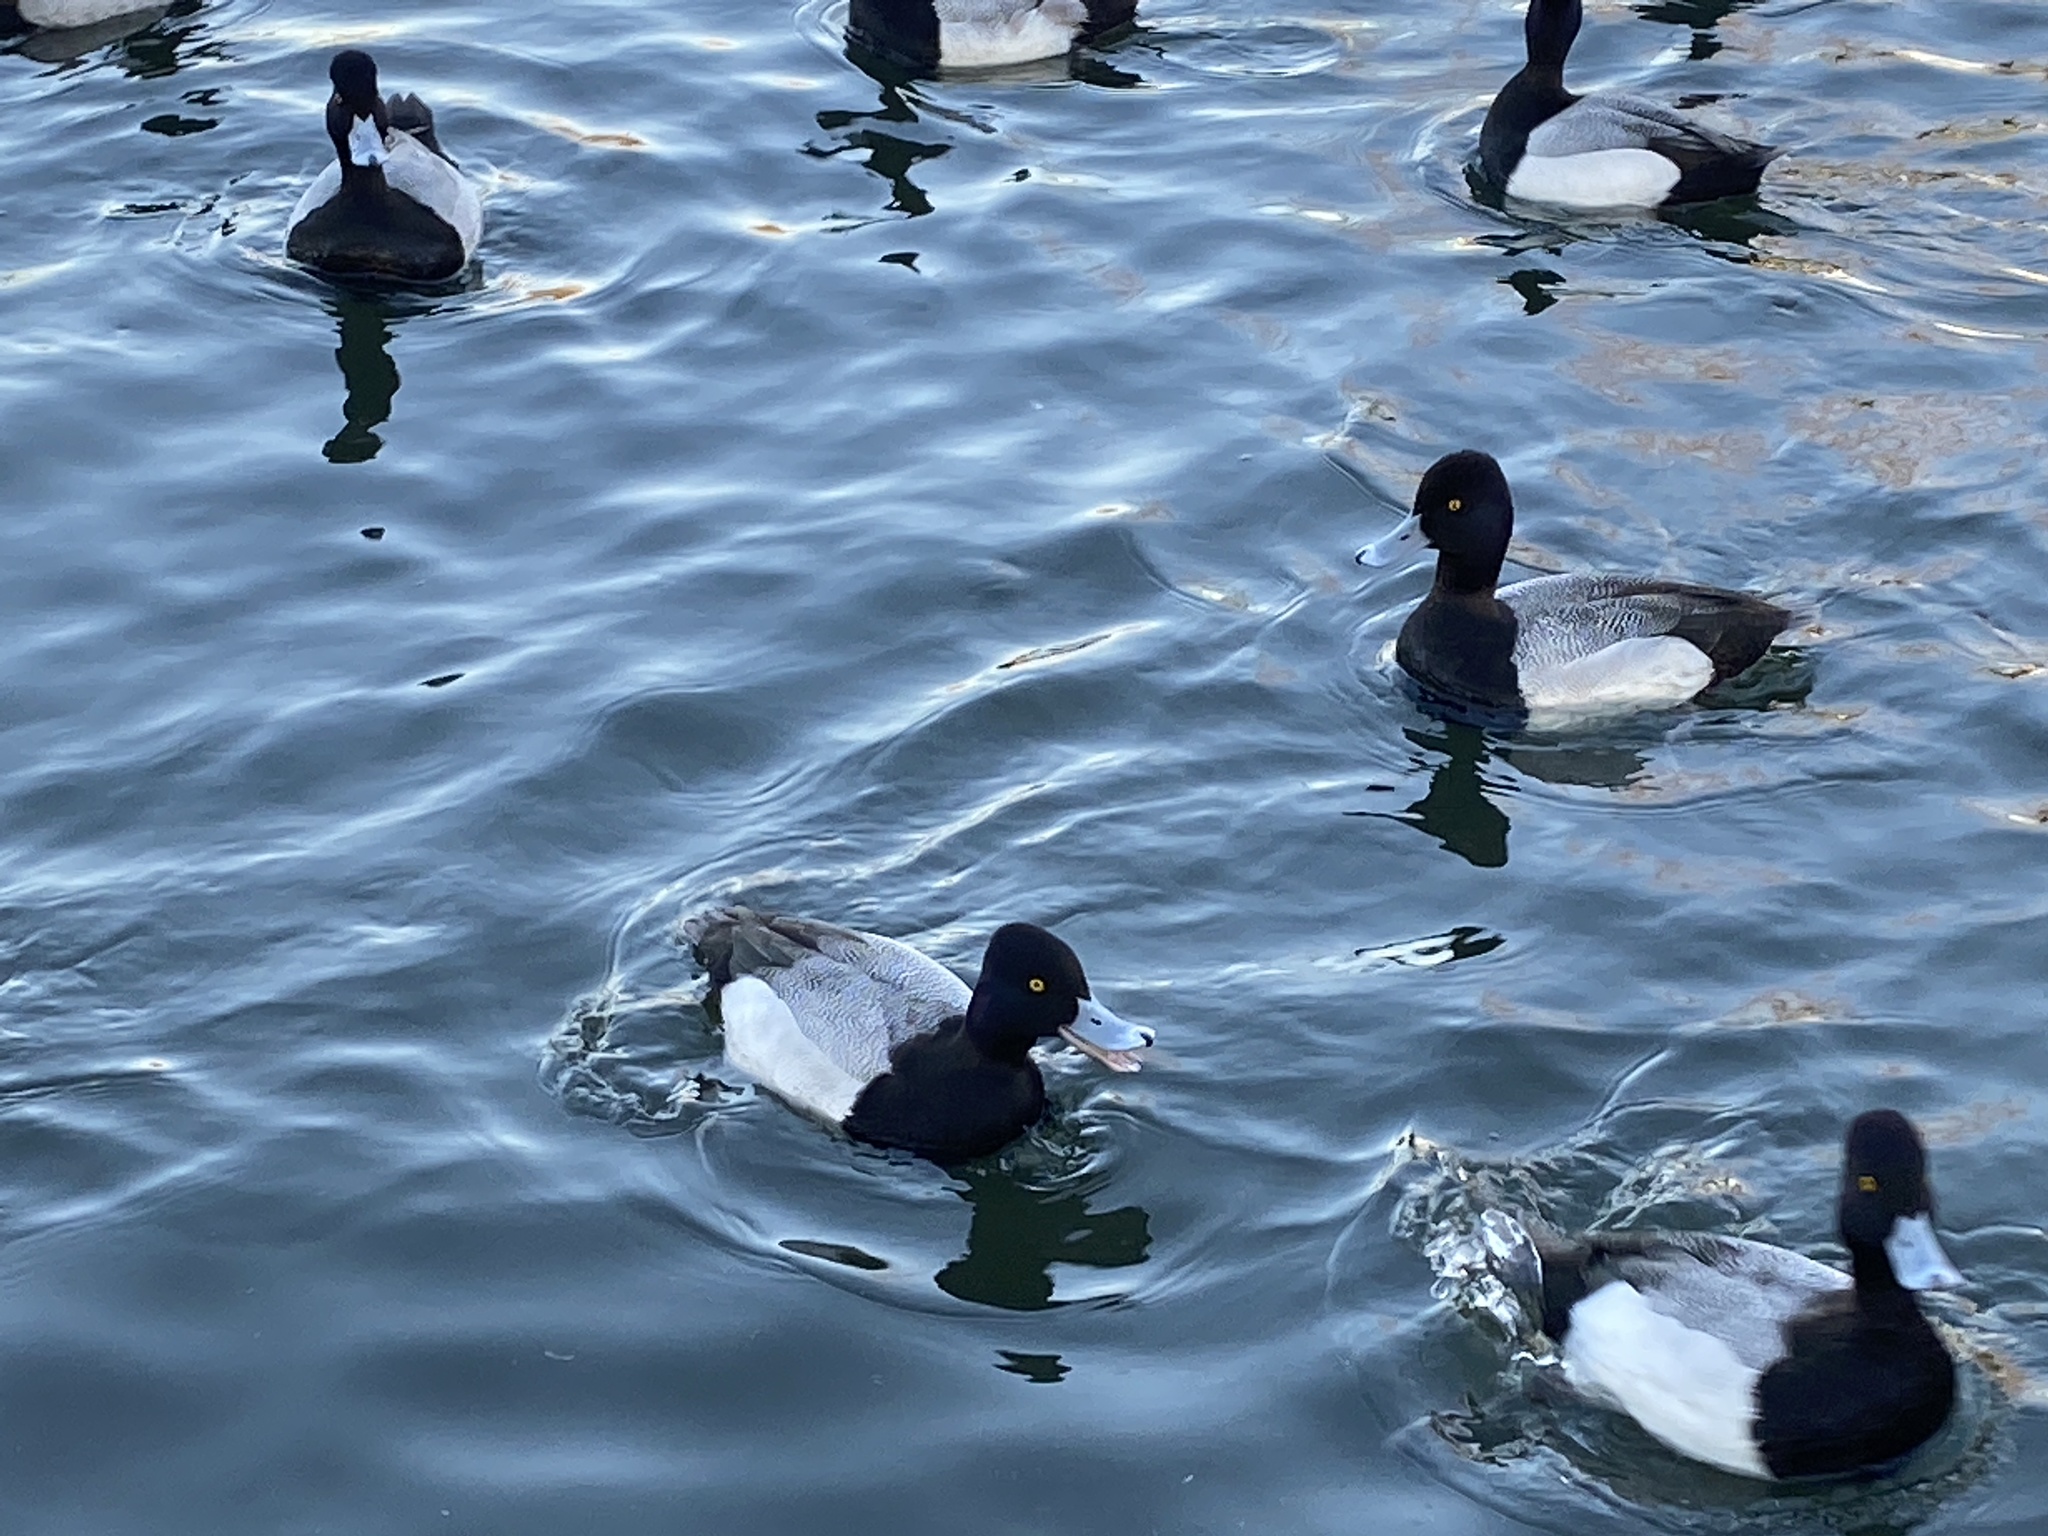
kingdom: Animalia
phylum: Chordata
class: Aves
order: Anseriformes
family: Anatidae
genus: Aythya
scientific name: Aythya affinis
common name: Lesser scaup
